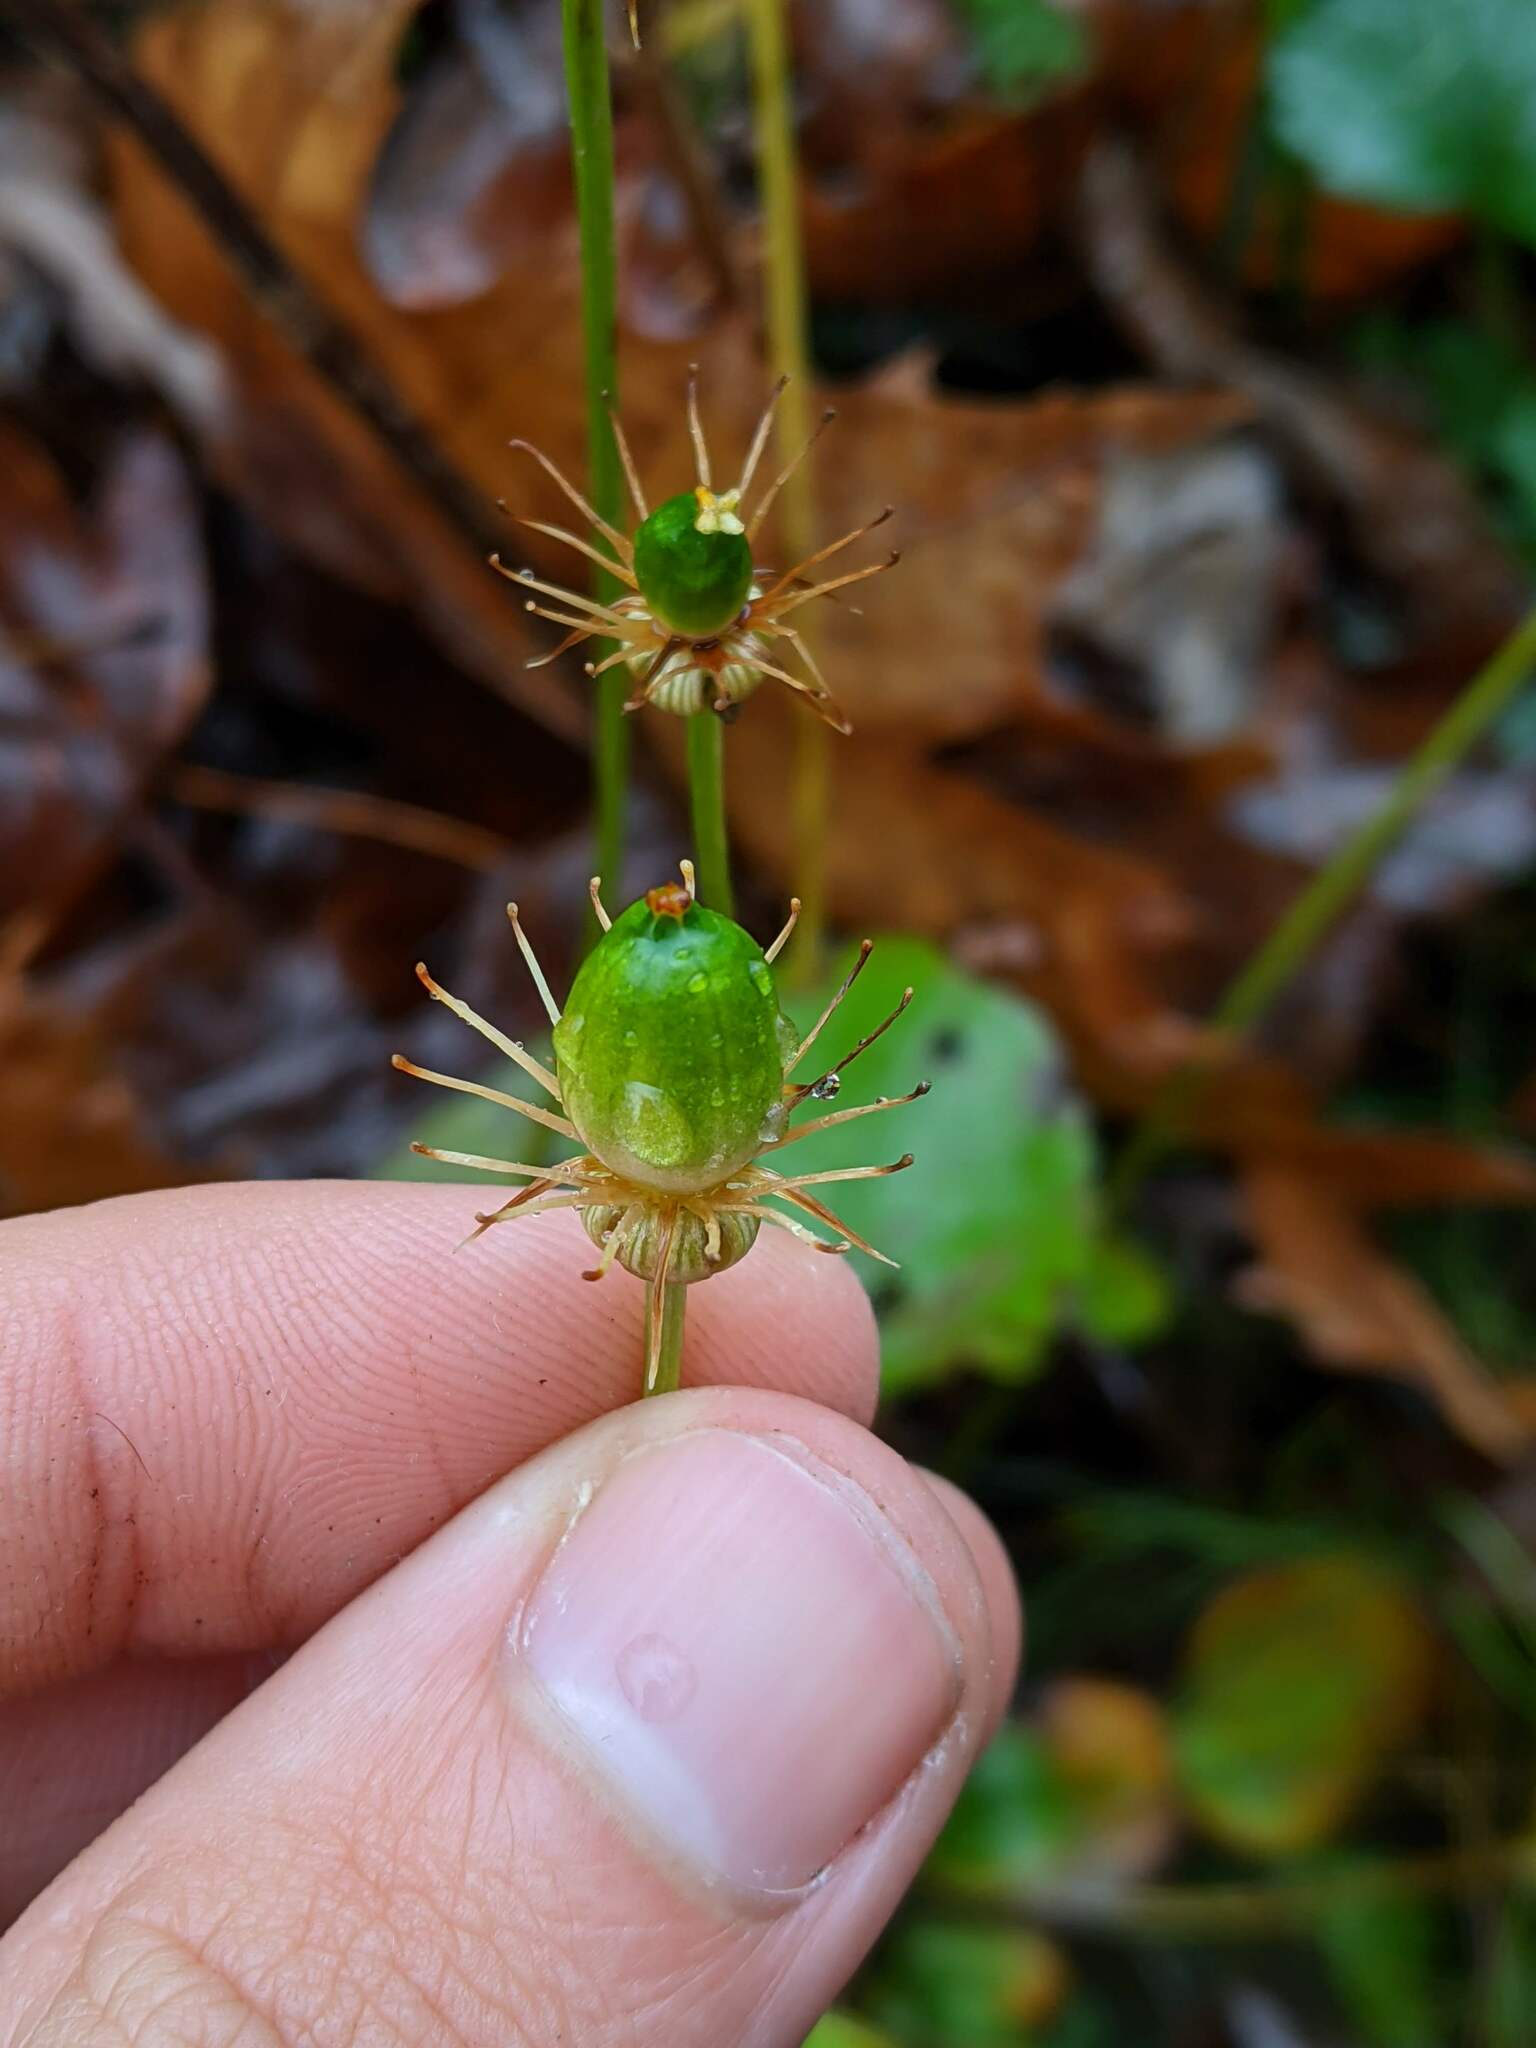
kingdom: Plantae
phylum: Tracheophyta
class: Magnoliopsida
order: Celastrales
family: Parnassiaceae
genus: Parnassia
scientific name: Parnassia grandifolia
